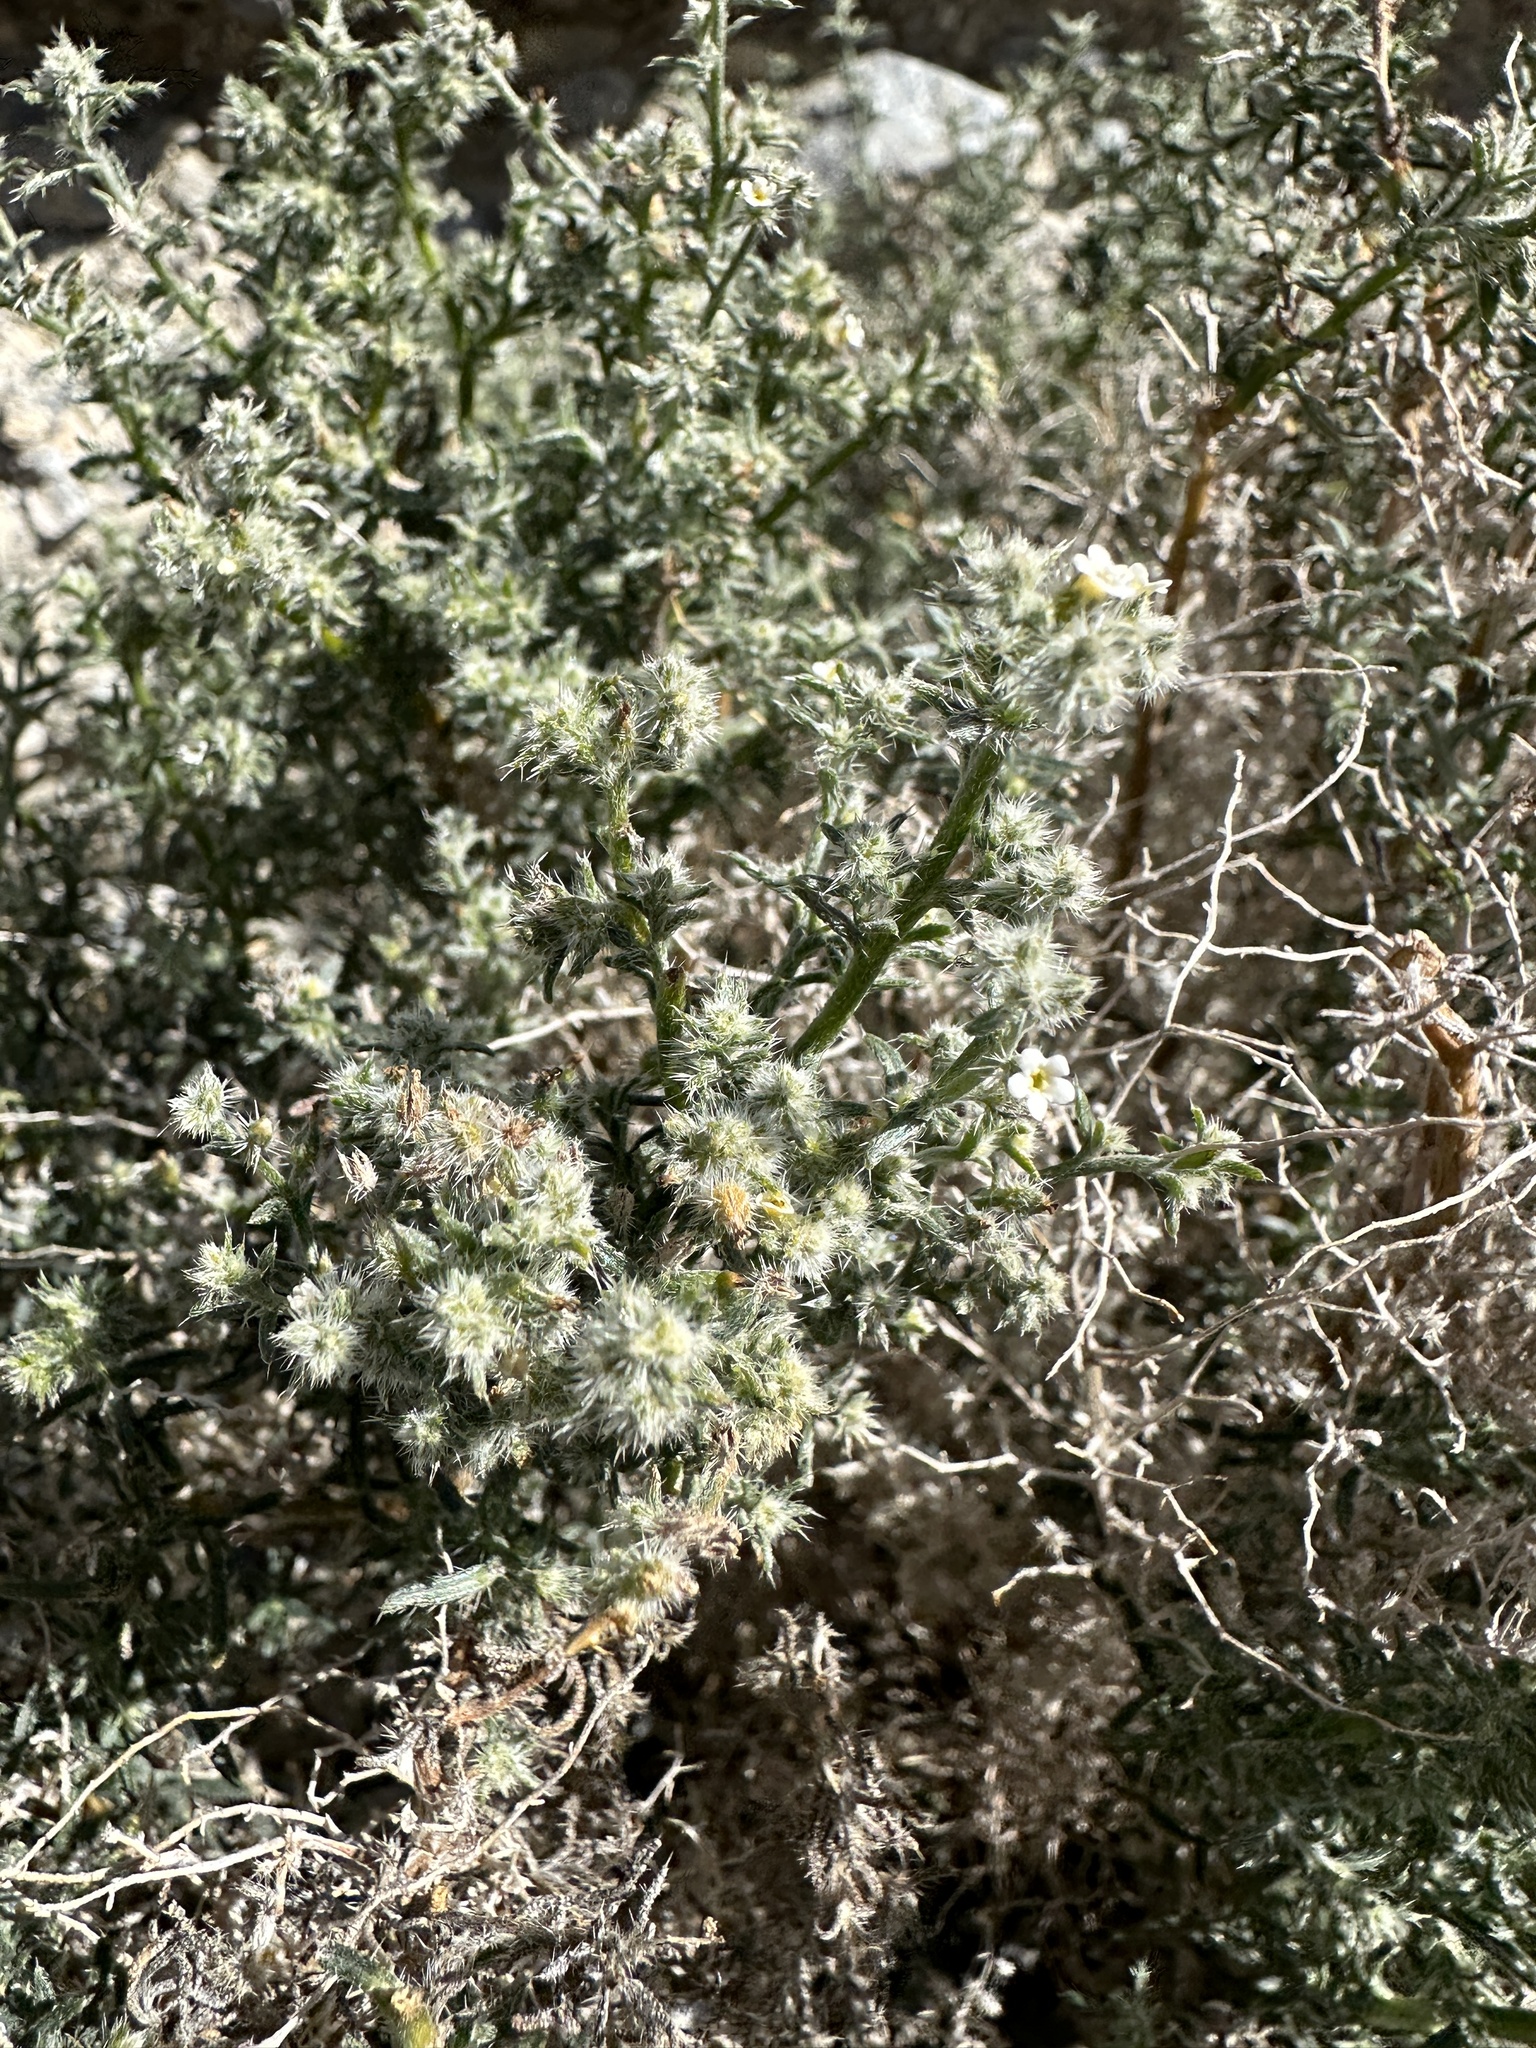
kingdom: Plantae
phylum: Tracheophyta
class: Magnoliopsida
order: Boraginales
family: Boraginaceae
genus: Johnstonella
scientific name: Johnstonella racemosa
